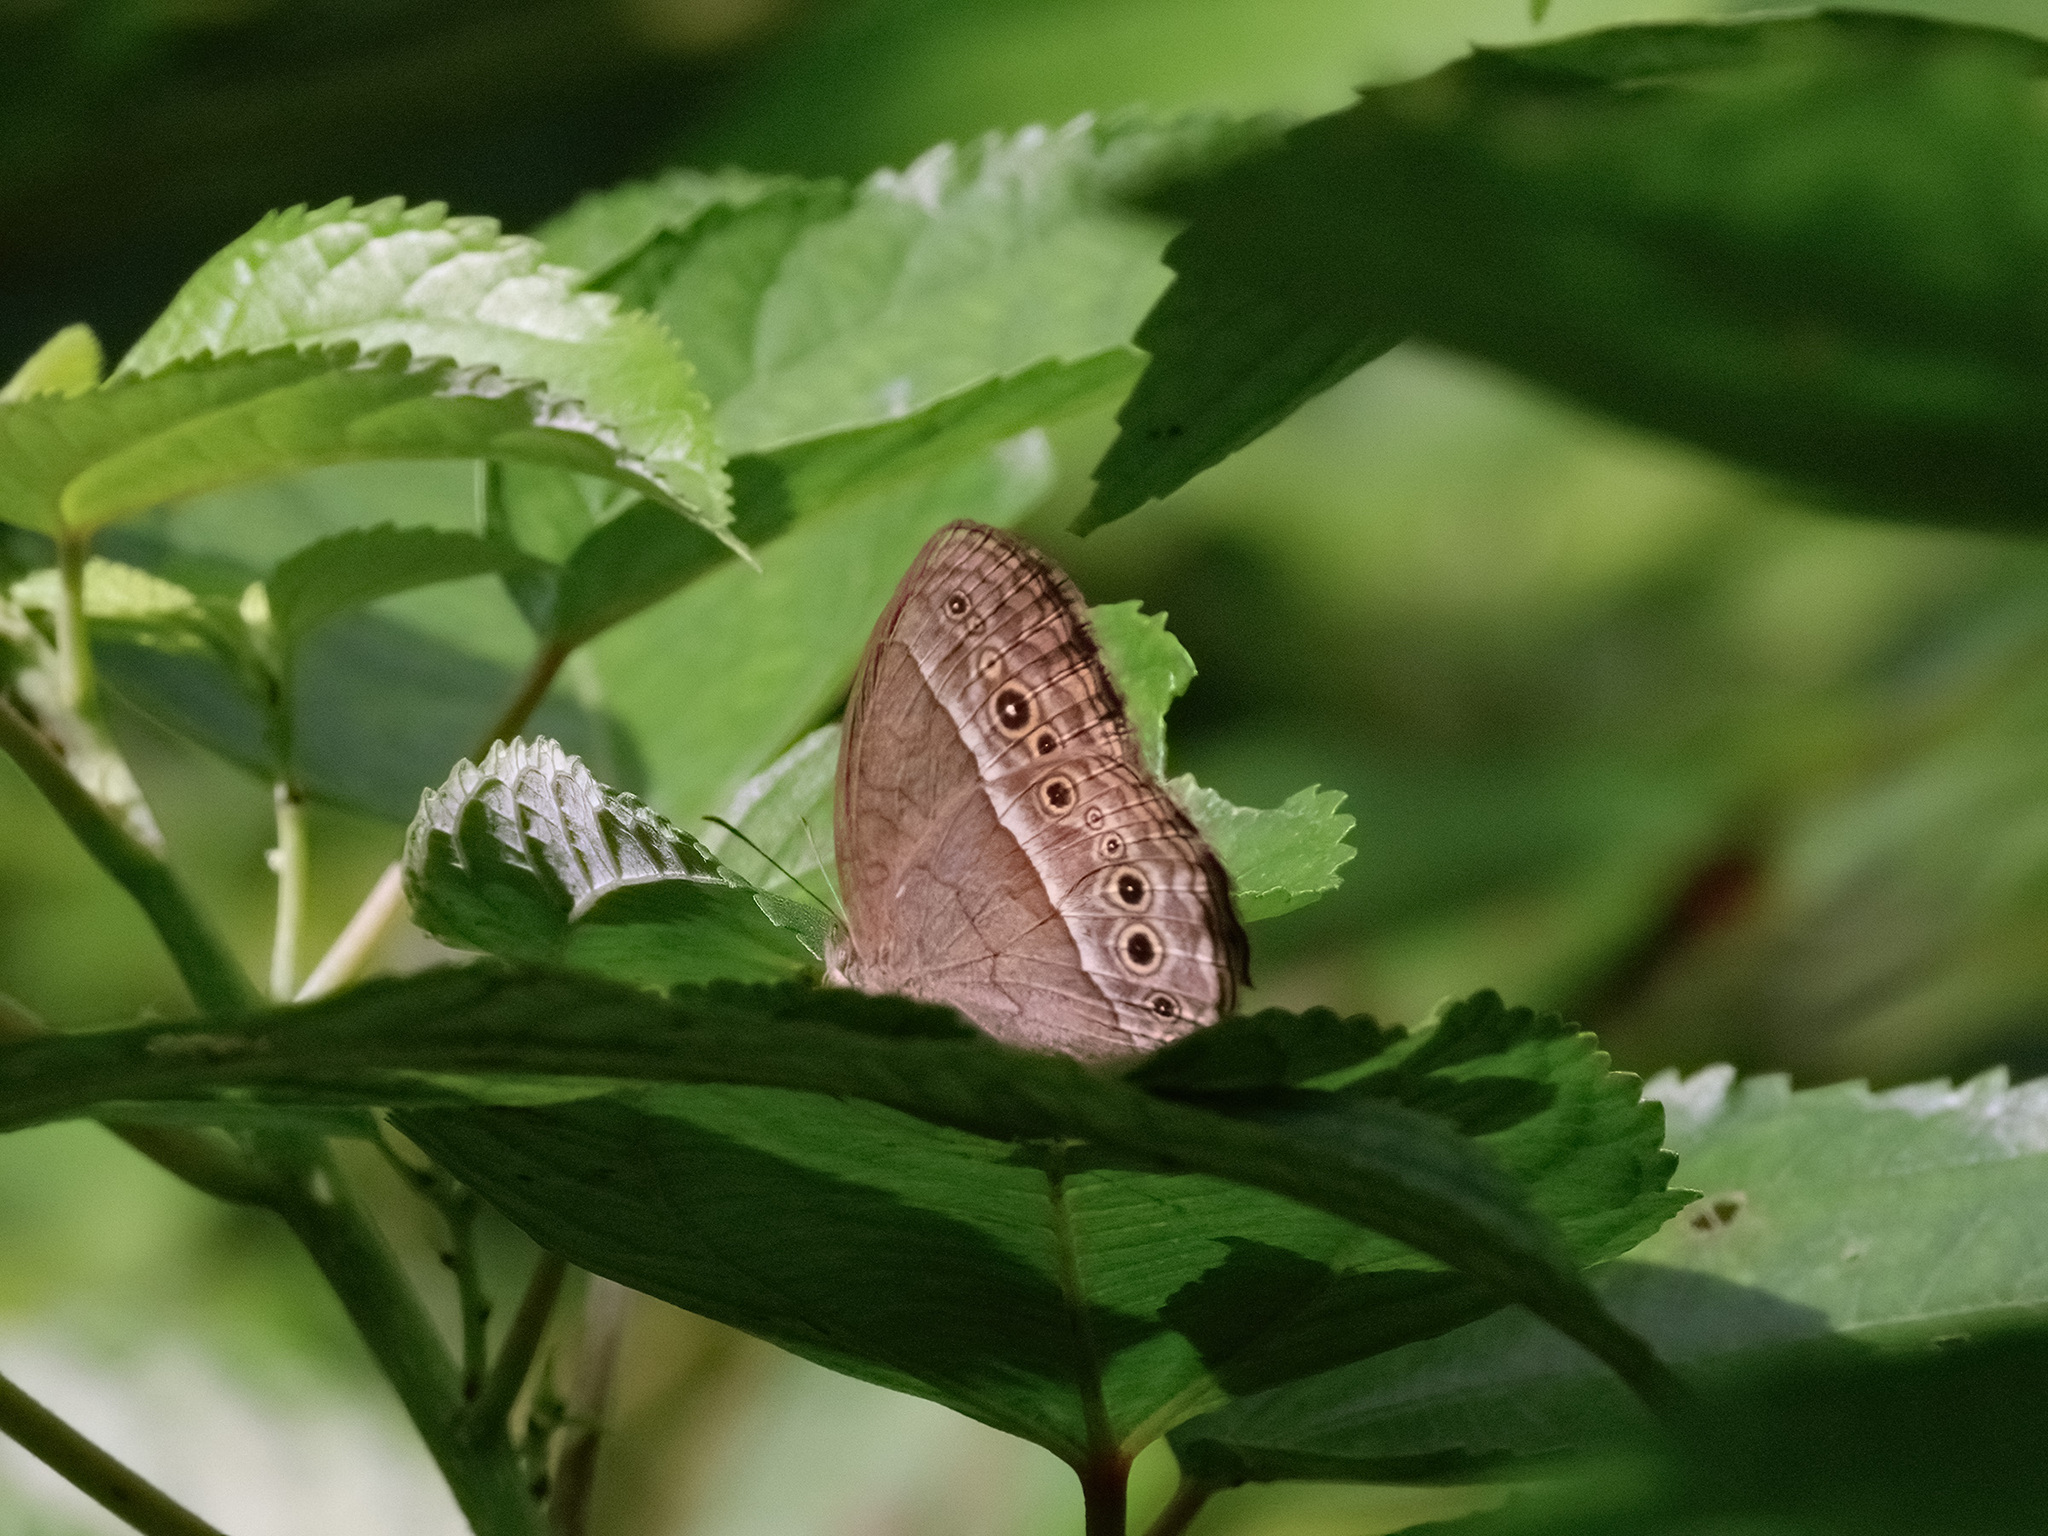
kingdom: Animalia
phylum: Arthropoda
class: Insecta
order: Lepidoptera
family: Nymphalidae
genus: Mycalesis
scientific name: Mycalesis perseoides
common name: Burmese bushbrown
